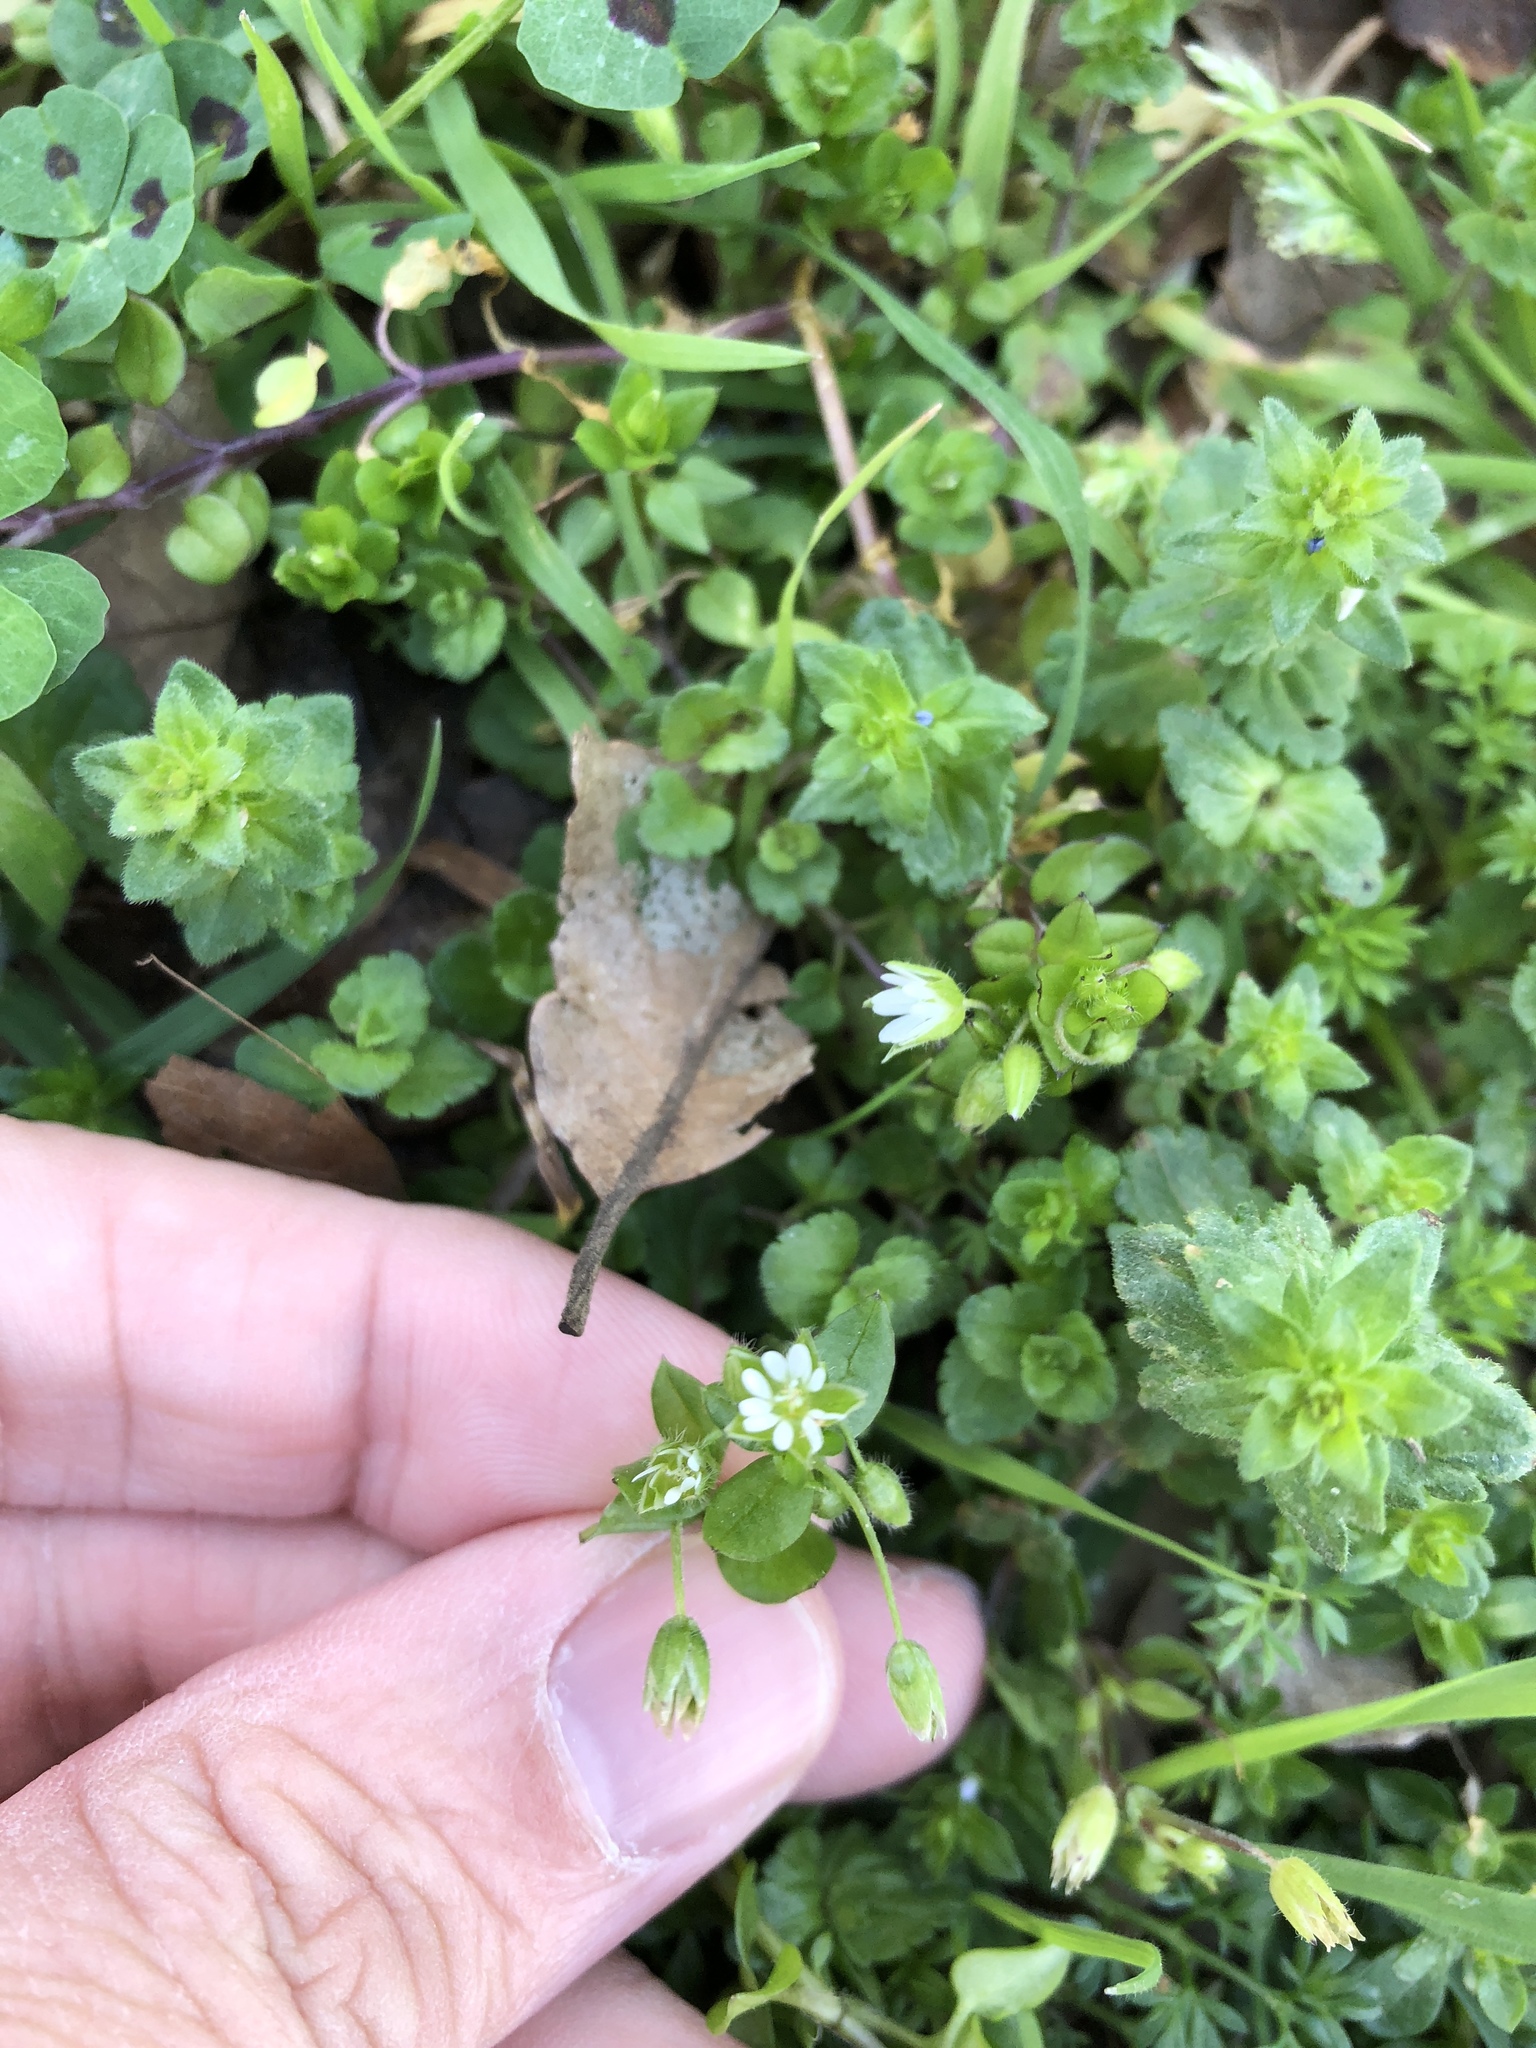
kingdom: Plantae
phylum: Tracheophyta
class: Magnoliopsida
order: Caryophyllales
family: Caryophyllaceae
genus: Stellaria
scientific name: Stellaria media
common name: Common chickweed
